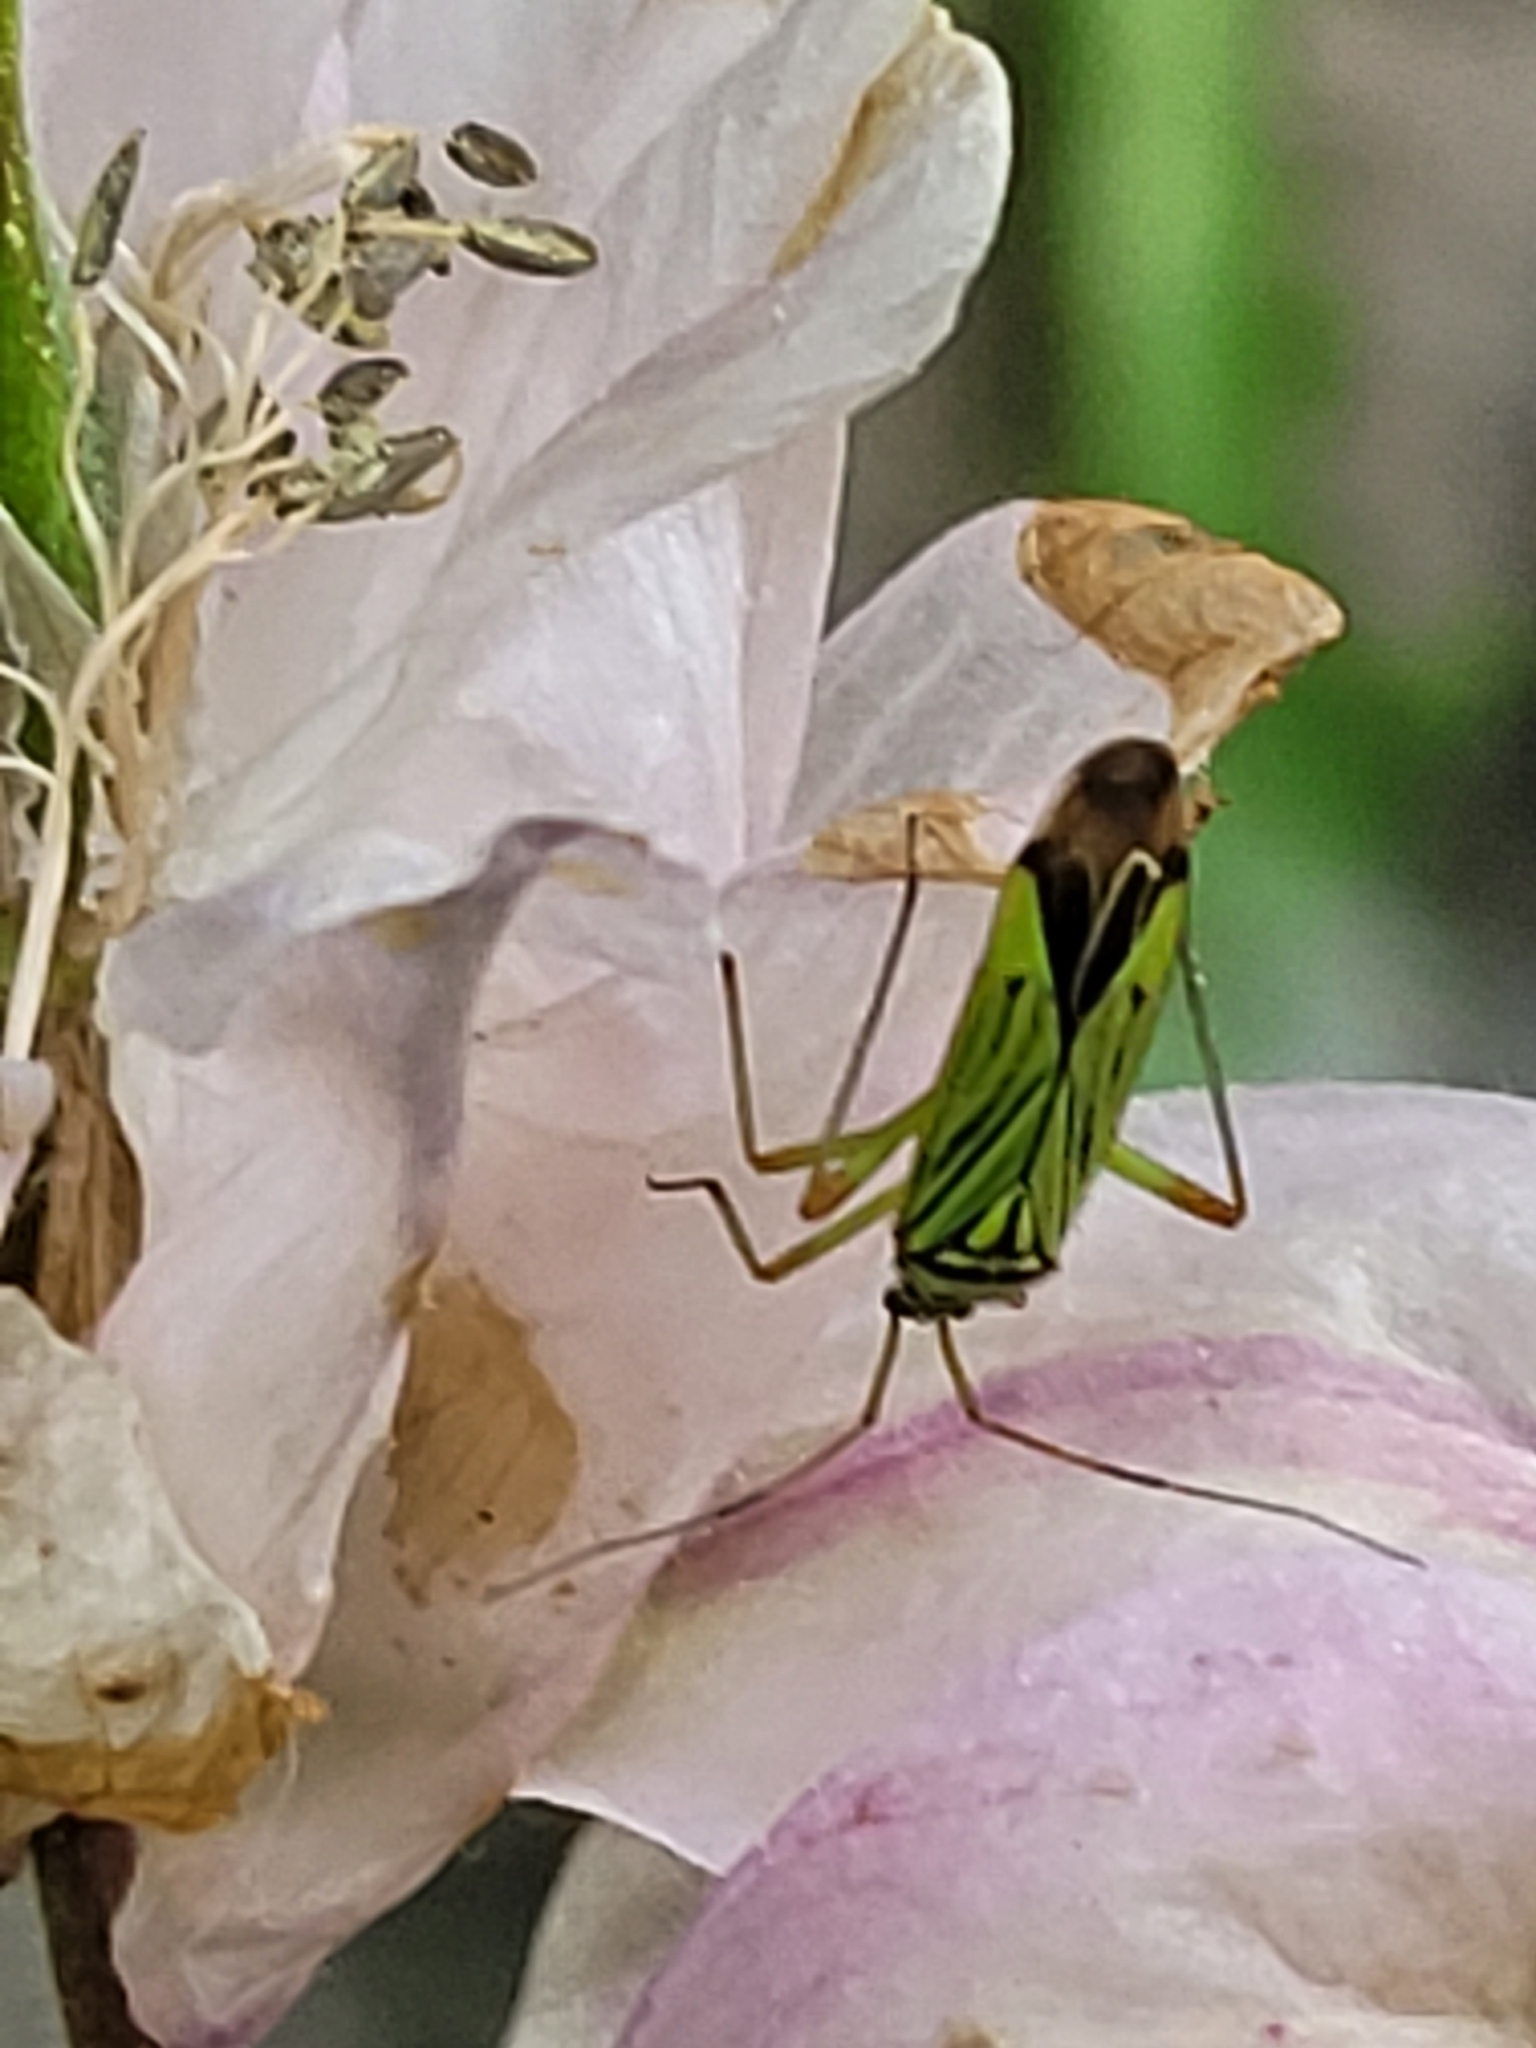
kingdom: Animalia
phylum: Arthropoda
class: Insecta
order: Hemiptera
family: Miridae
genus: Mermitelocerus
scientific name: Mermitelocerus schmidtii
